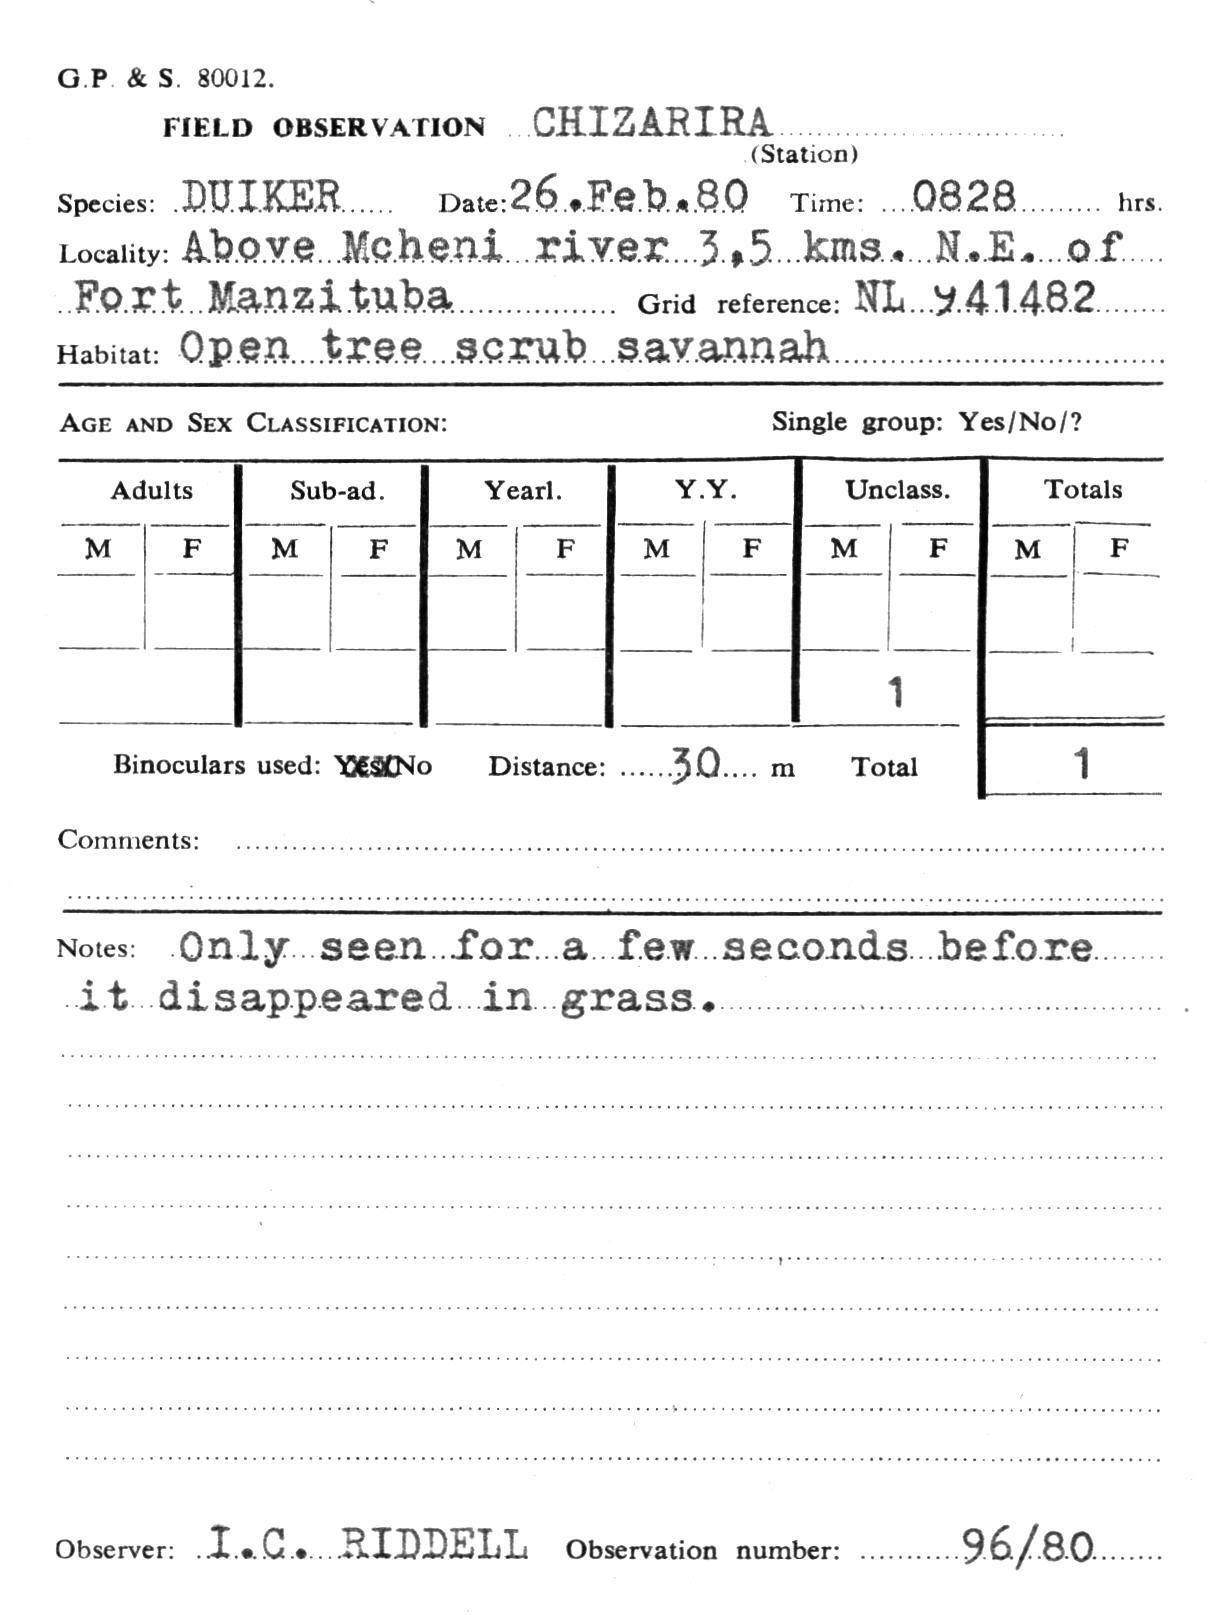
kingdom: Animalia
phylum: Chordata
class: Mammalia
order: Artiodactyla
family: Bovidae
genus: Sylvicapra
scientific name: Sylvicapra grimmia
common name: Bush duiker
